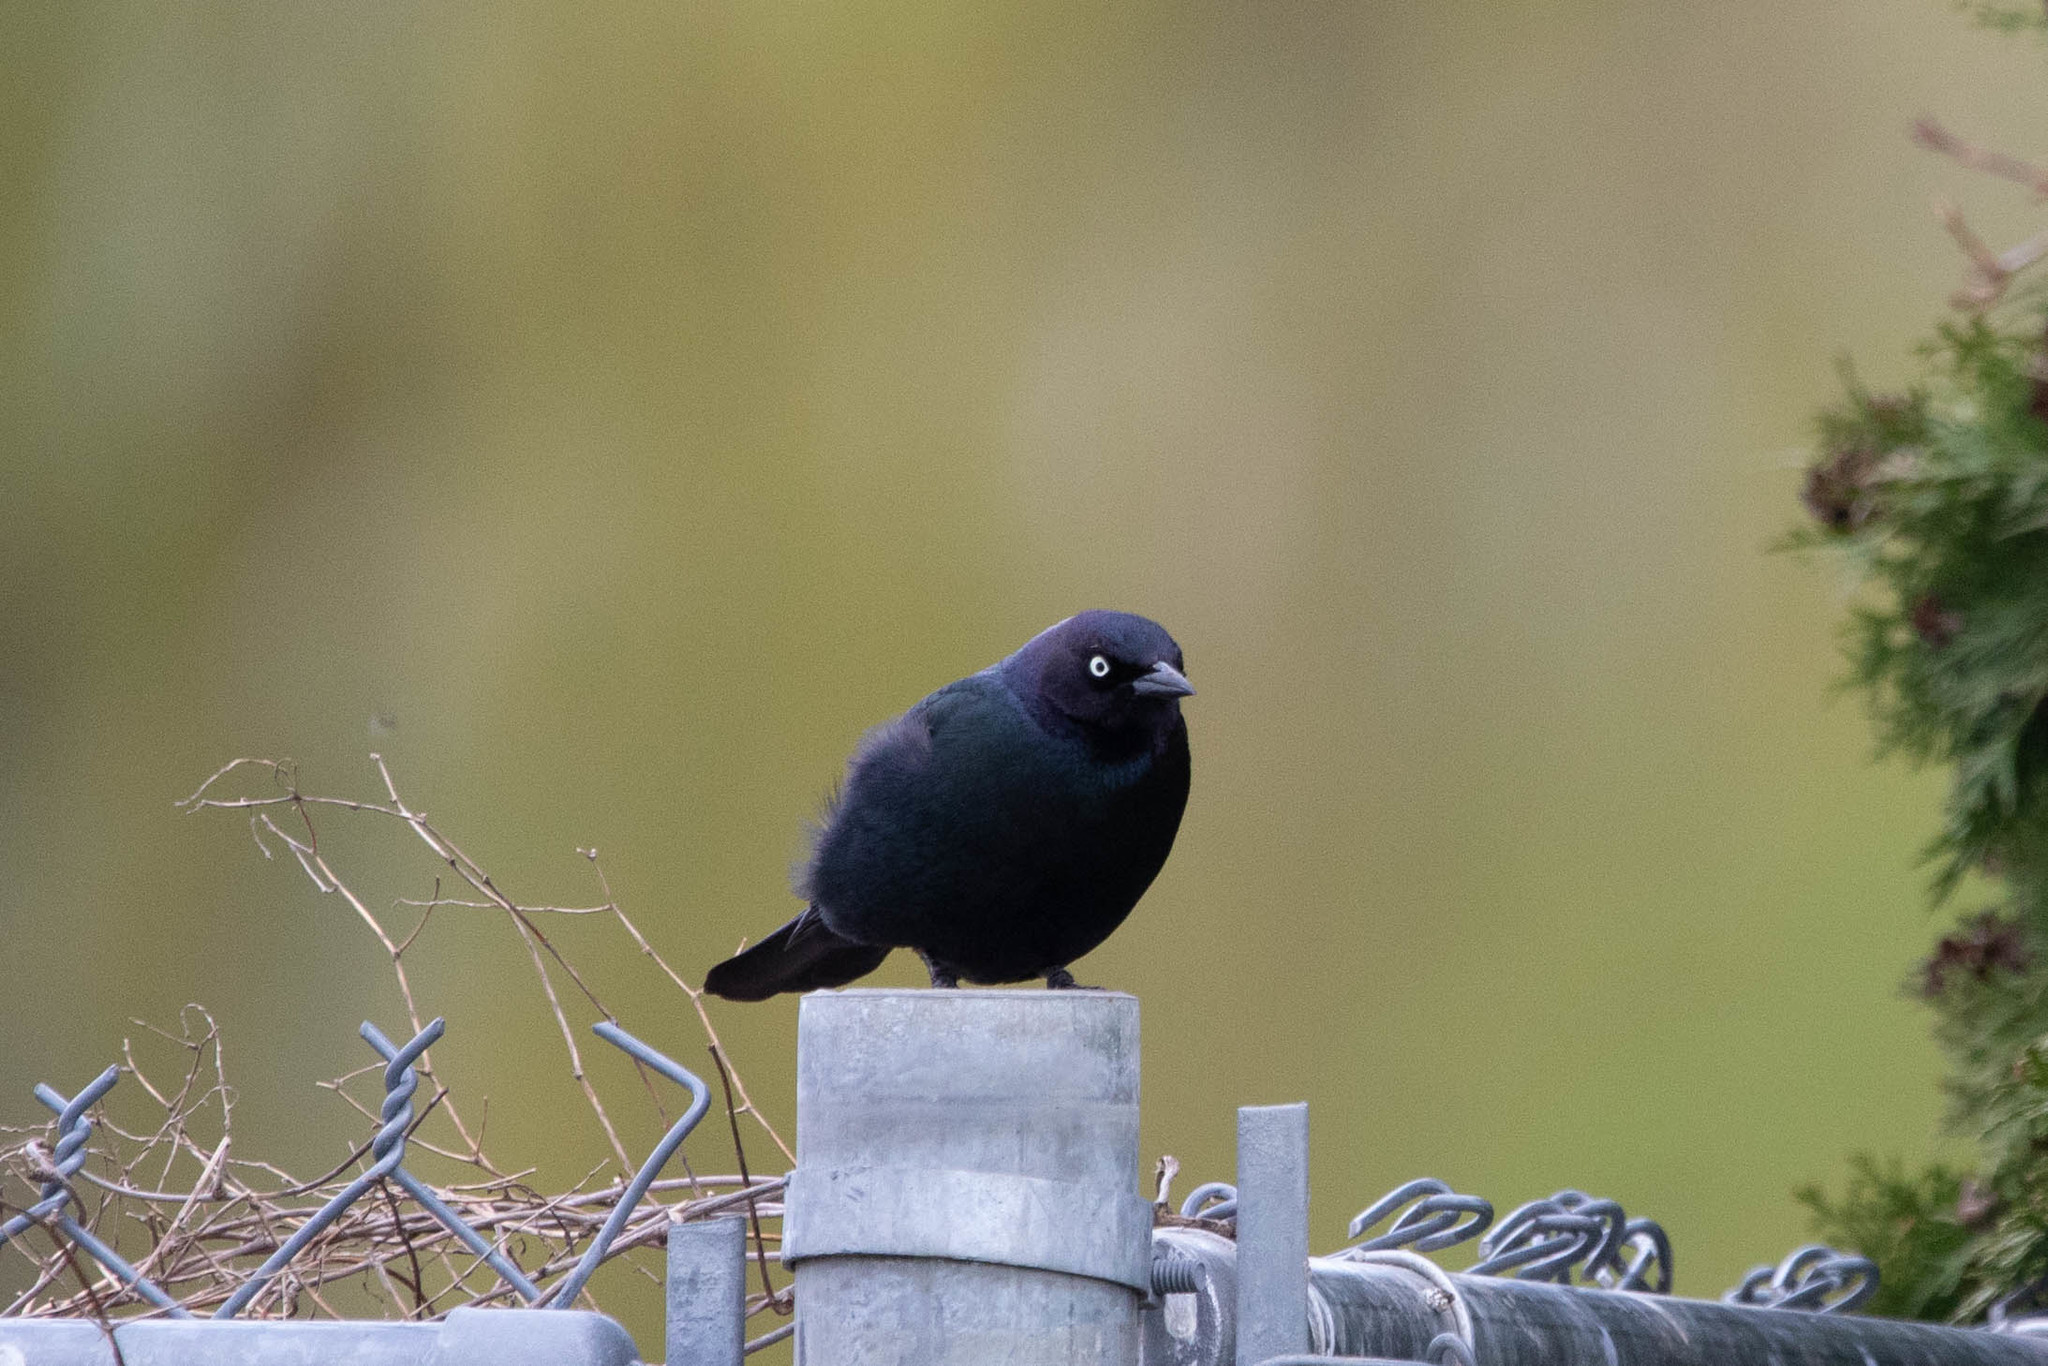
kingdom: Animalia
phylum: Chordata
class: Aves
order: Passeriformes
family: Icteridae
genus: Euphagus
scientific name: Euphagus cyanocephalus
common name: Brewer's blackbird
